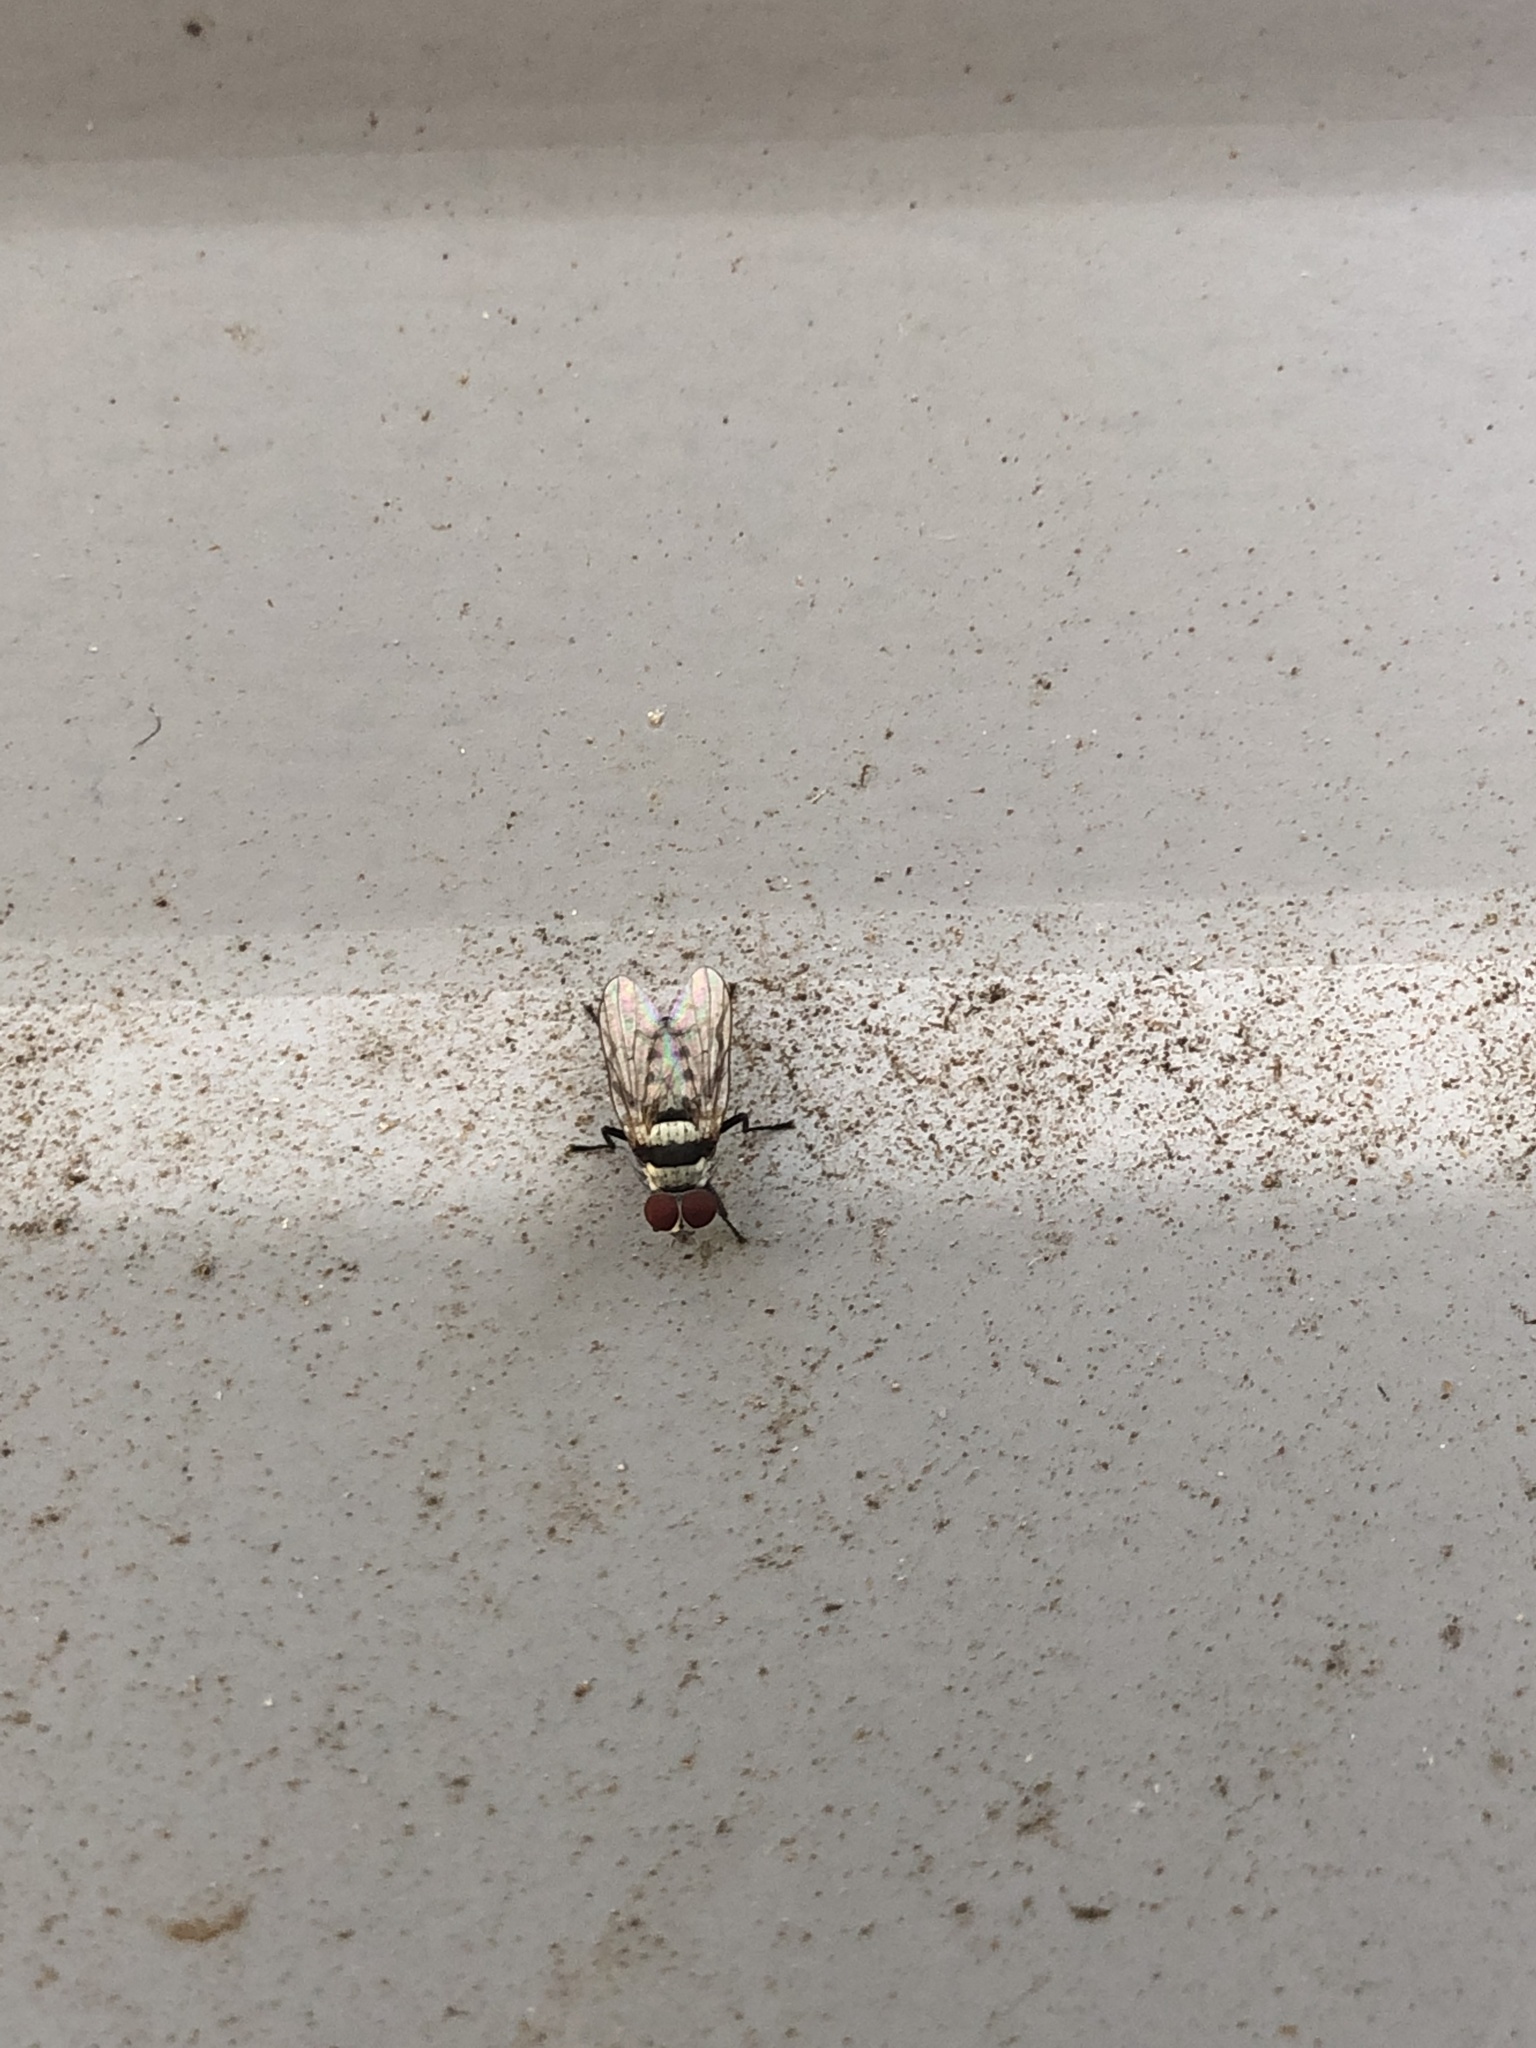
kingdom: Animalia
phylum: Arthropoda
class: Insecta
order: Diptera
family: Anthomyiidae
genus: Anthomyia
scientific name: Anthomyia illocata
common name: Fly
